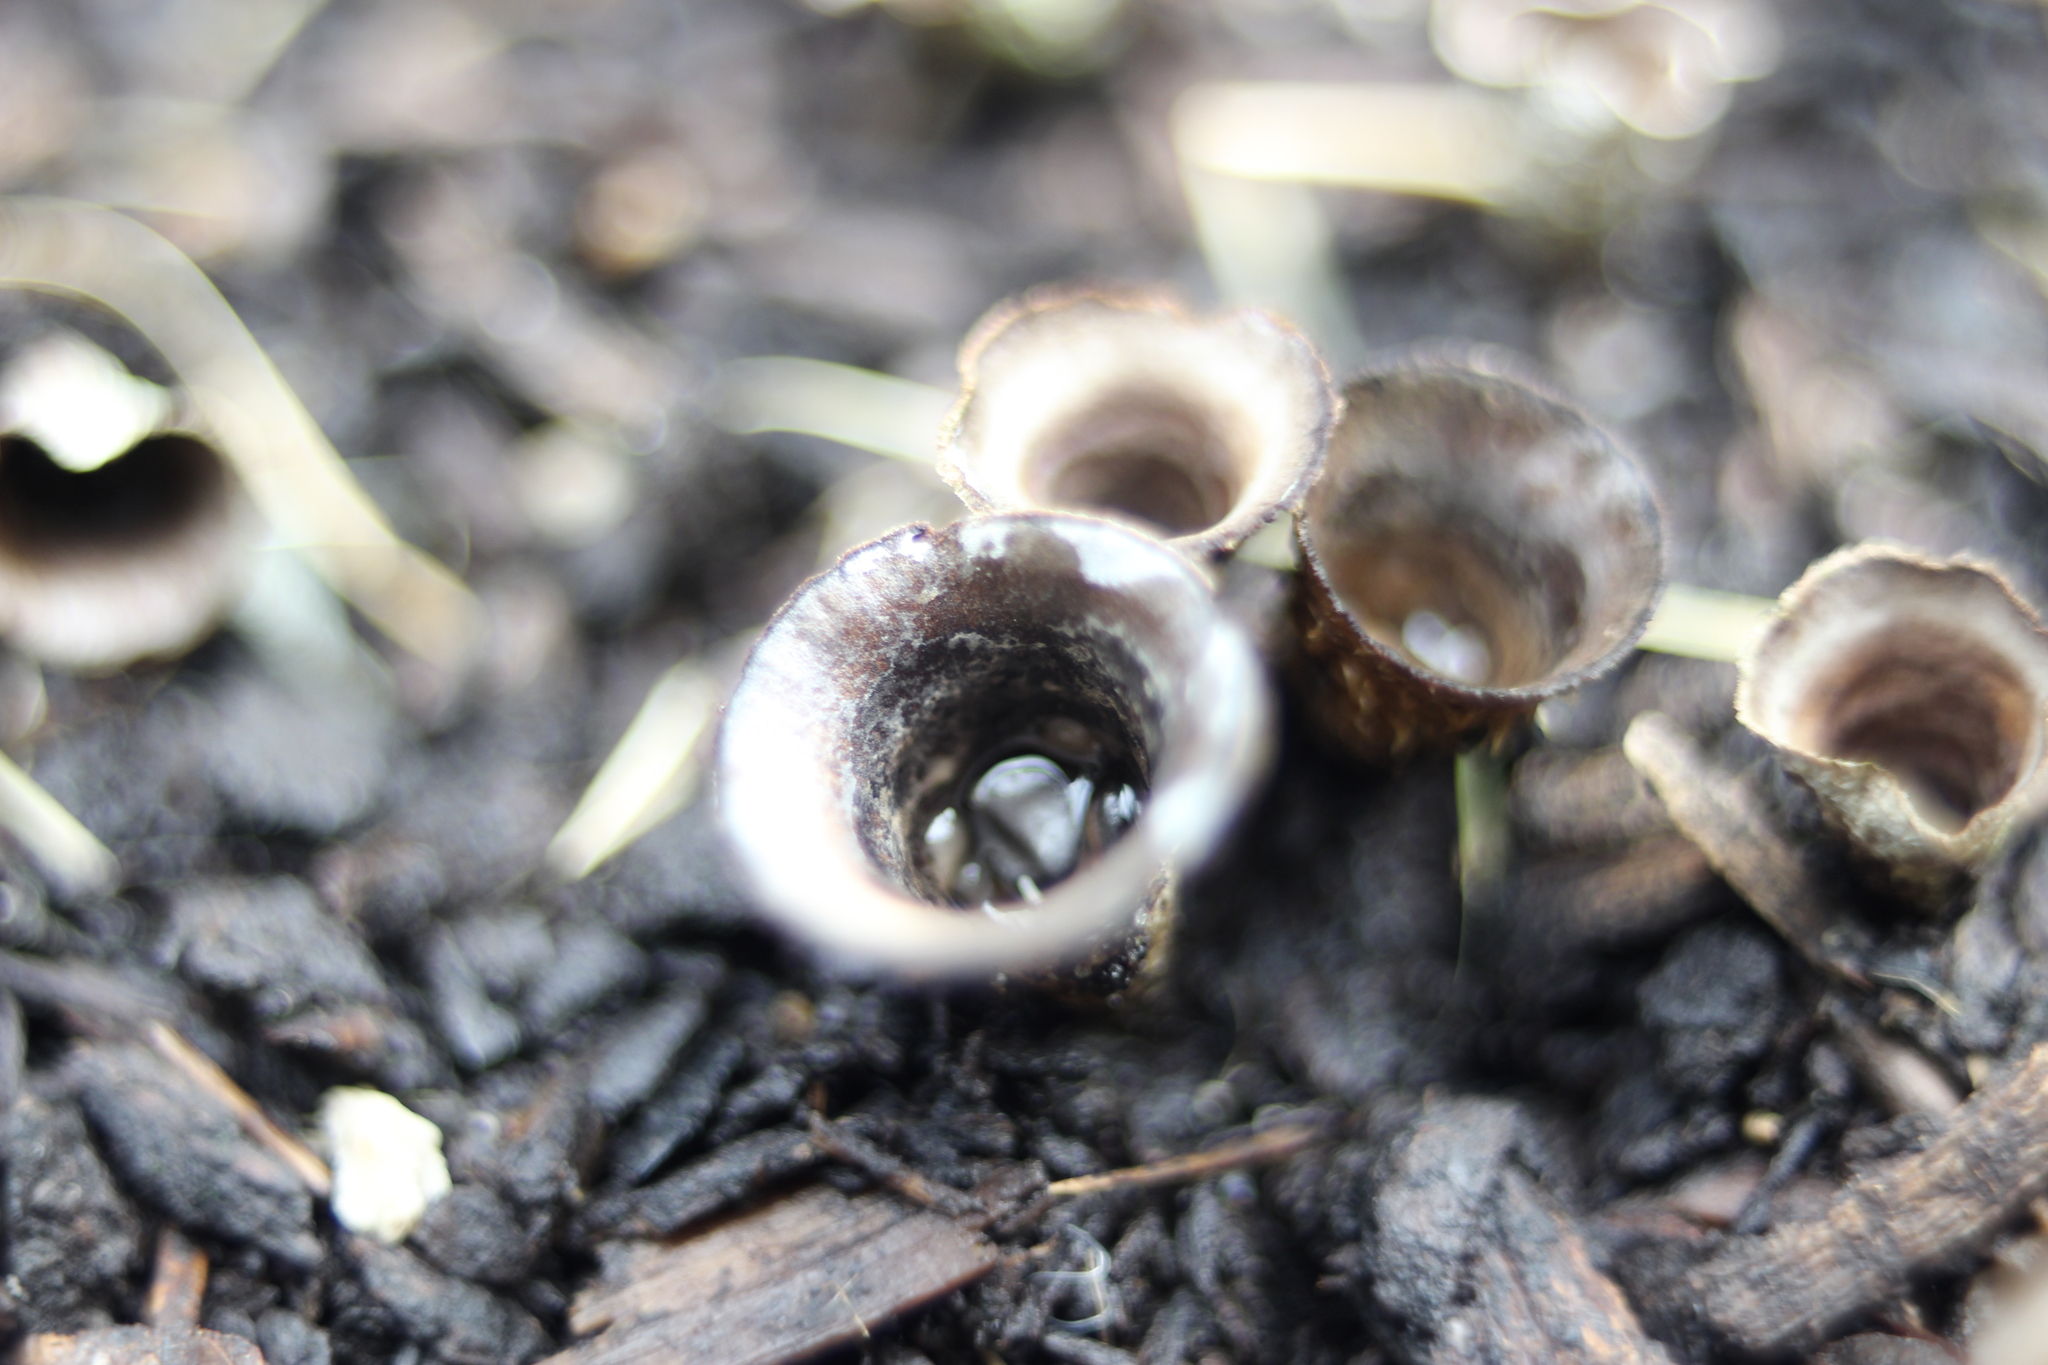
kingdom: Fungi
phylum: Basidiomycota
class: Agaricomycetes
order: Agaricales
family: Agaricaceae
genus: Cyathus
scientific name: Cyathus olla
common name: Field bird's nest
